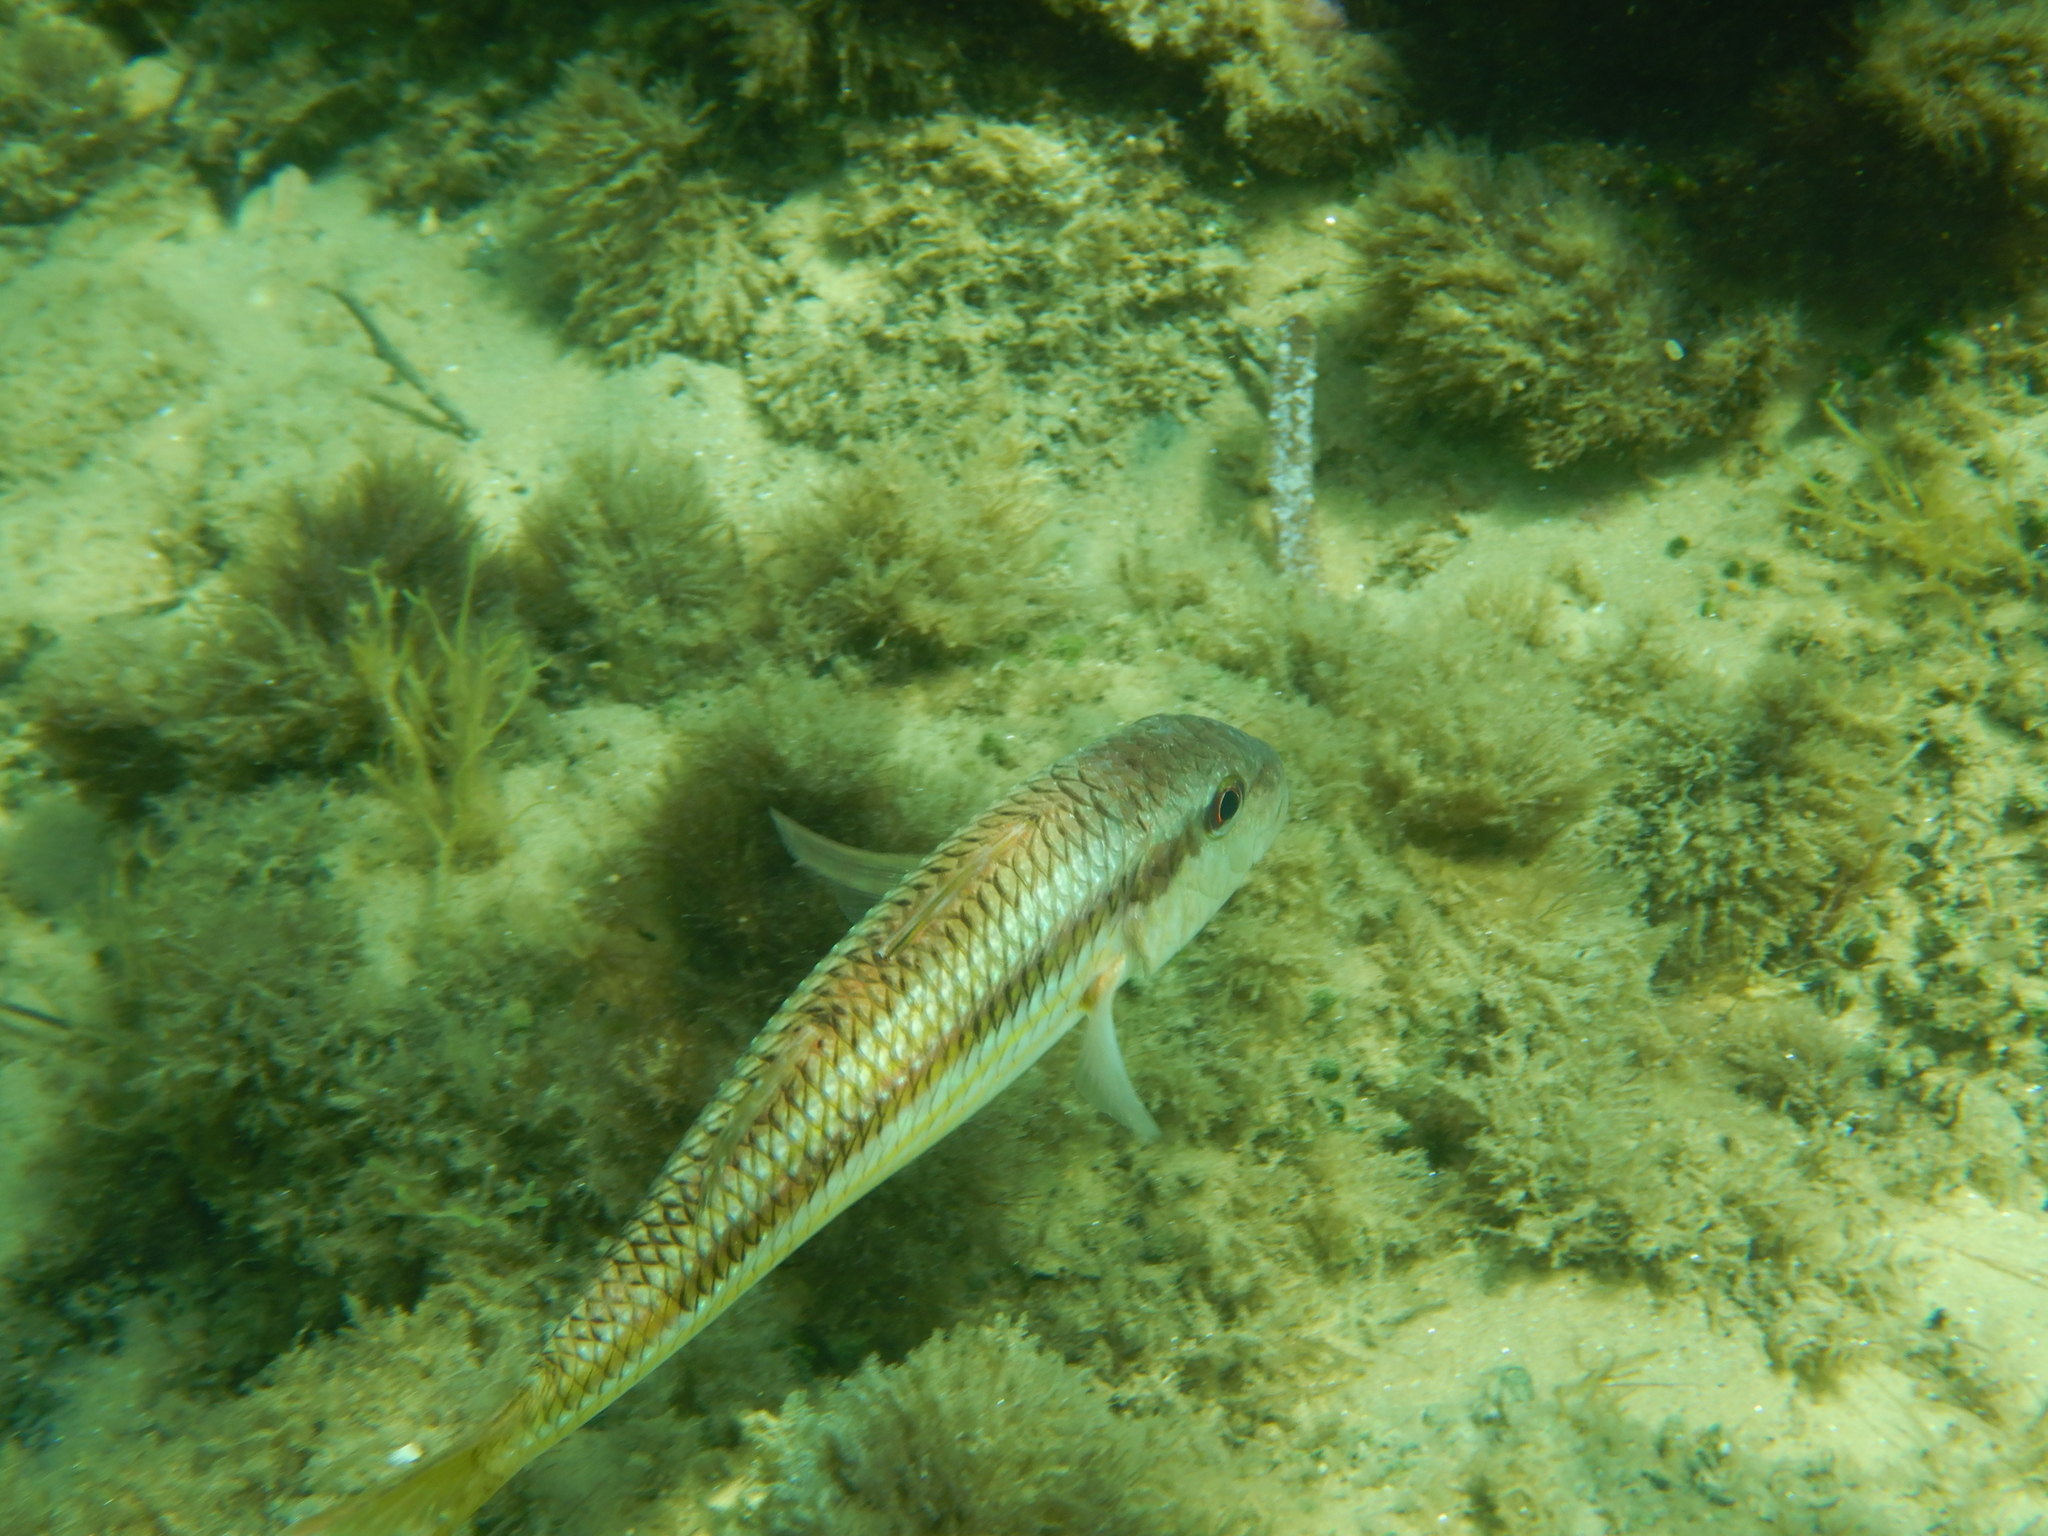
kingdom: Animalia
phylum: Chordata
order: Perciformes
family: Mullidae
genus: Mullus
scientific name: Mullus surmuletus
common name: Red mullet
